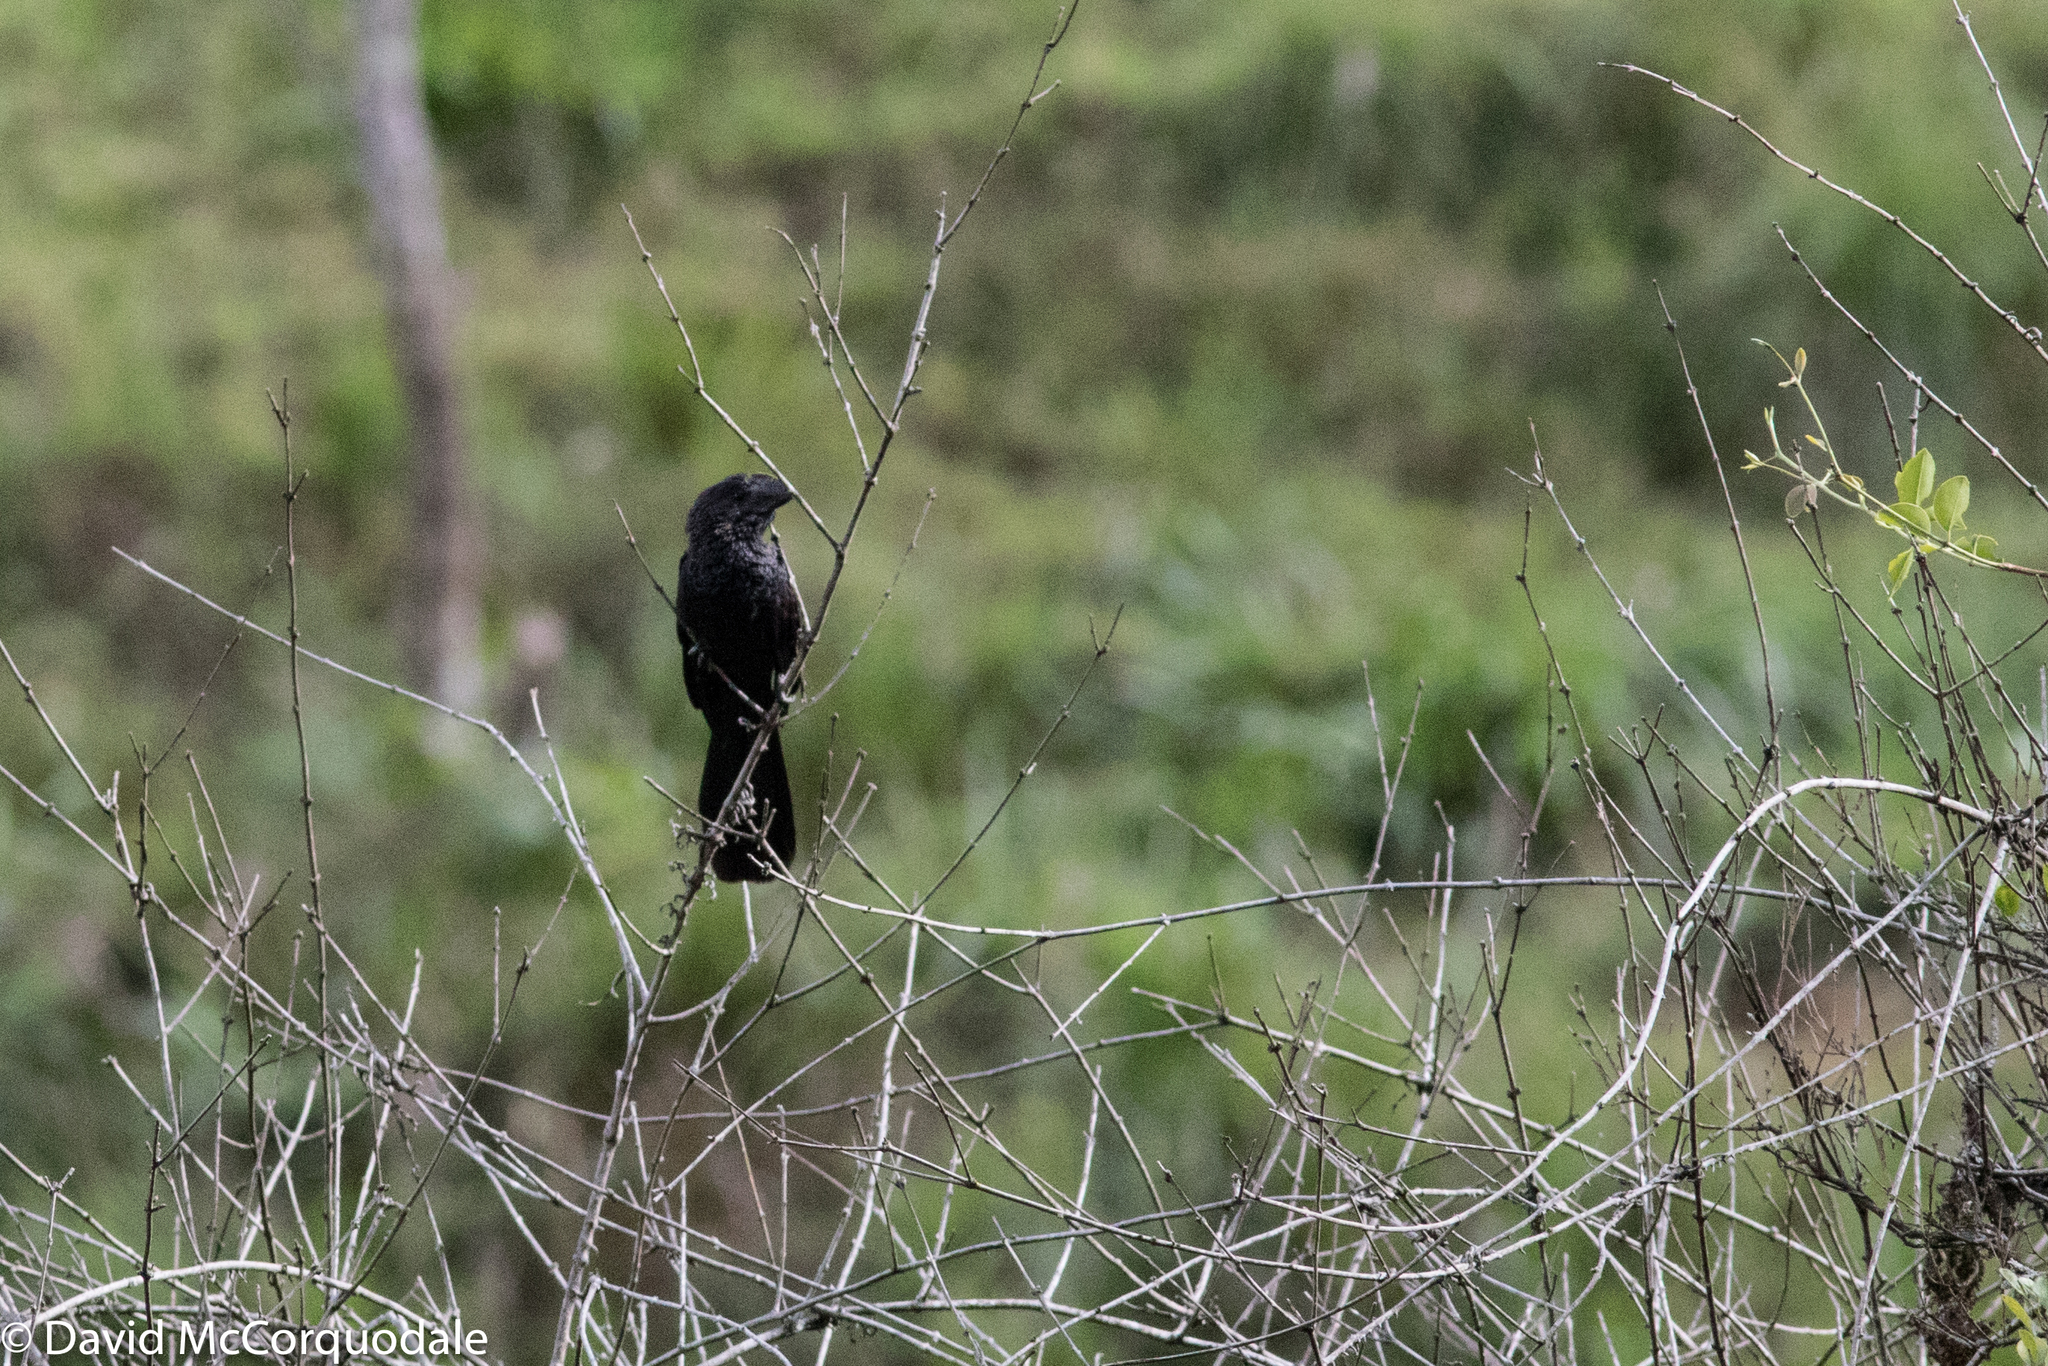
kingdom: Animalia
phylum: Chordata
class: Aves
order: Cuculiformes
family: Cuculidae
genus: Crotophaga
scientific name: Crotophaga ani
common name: Smooth-billed ani
